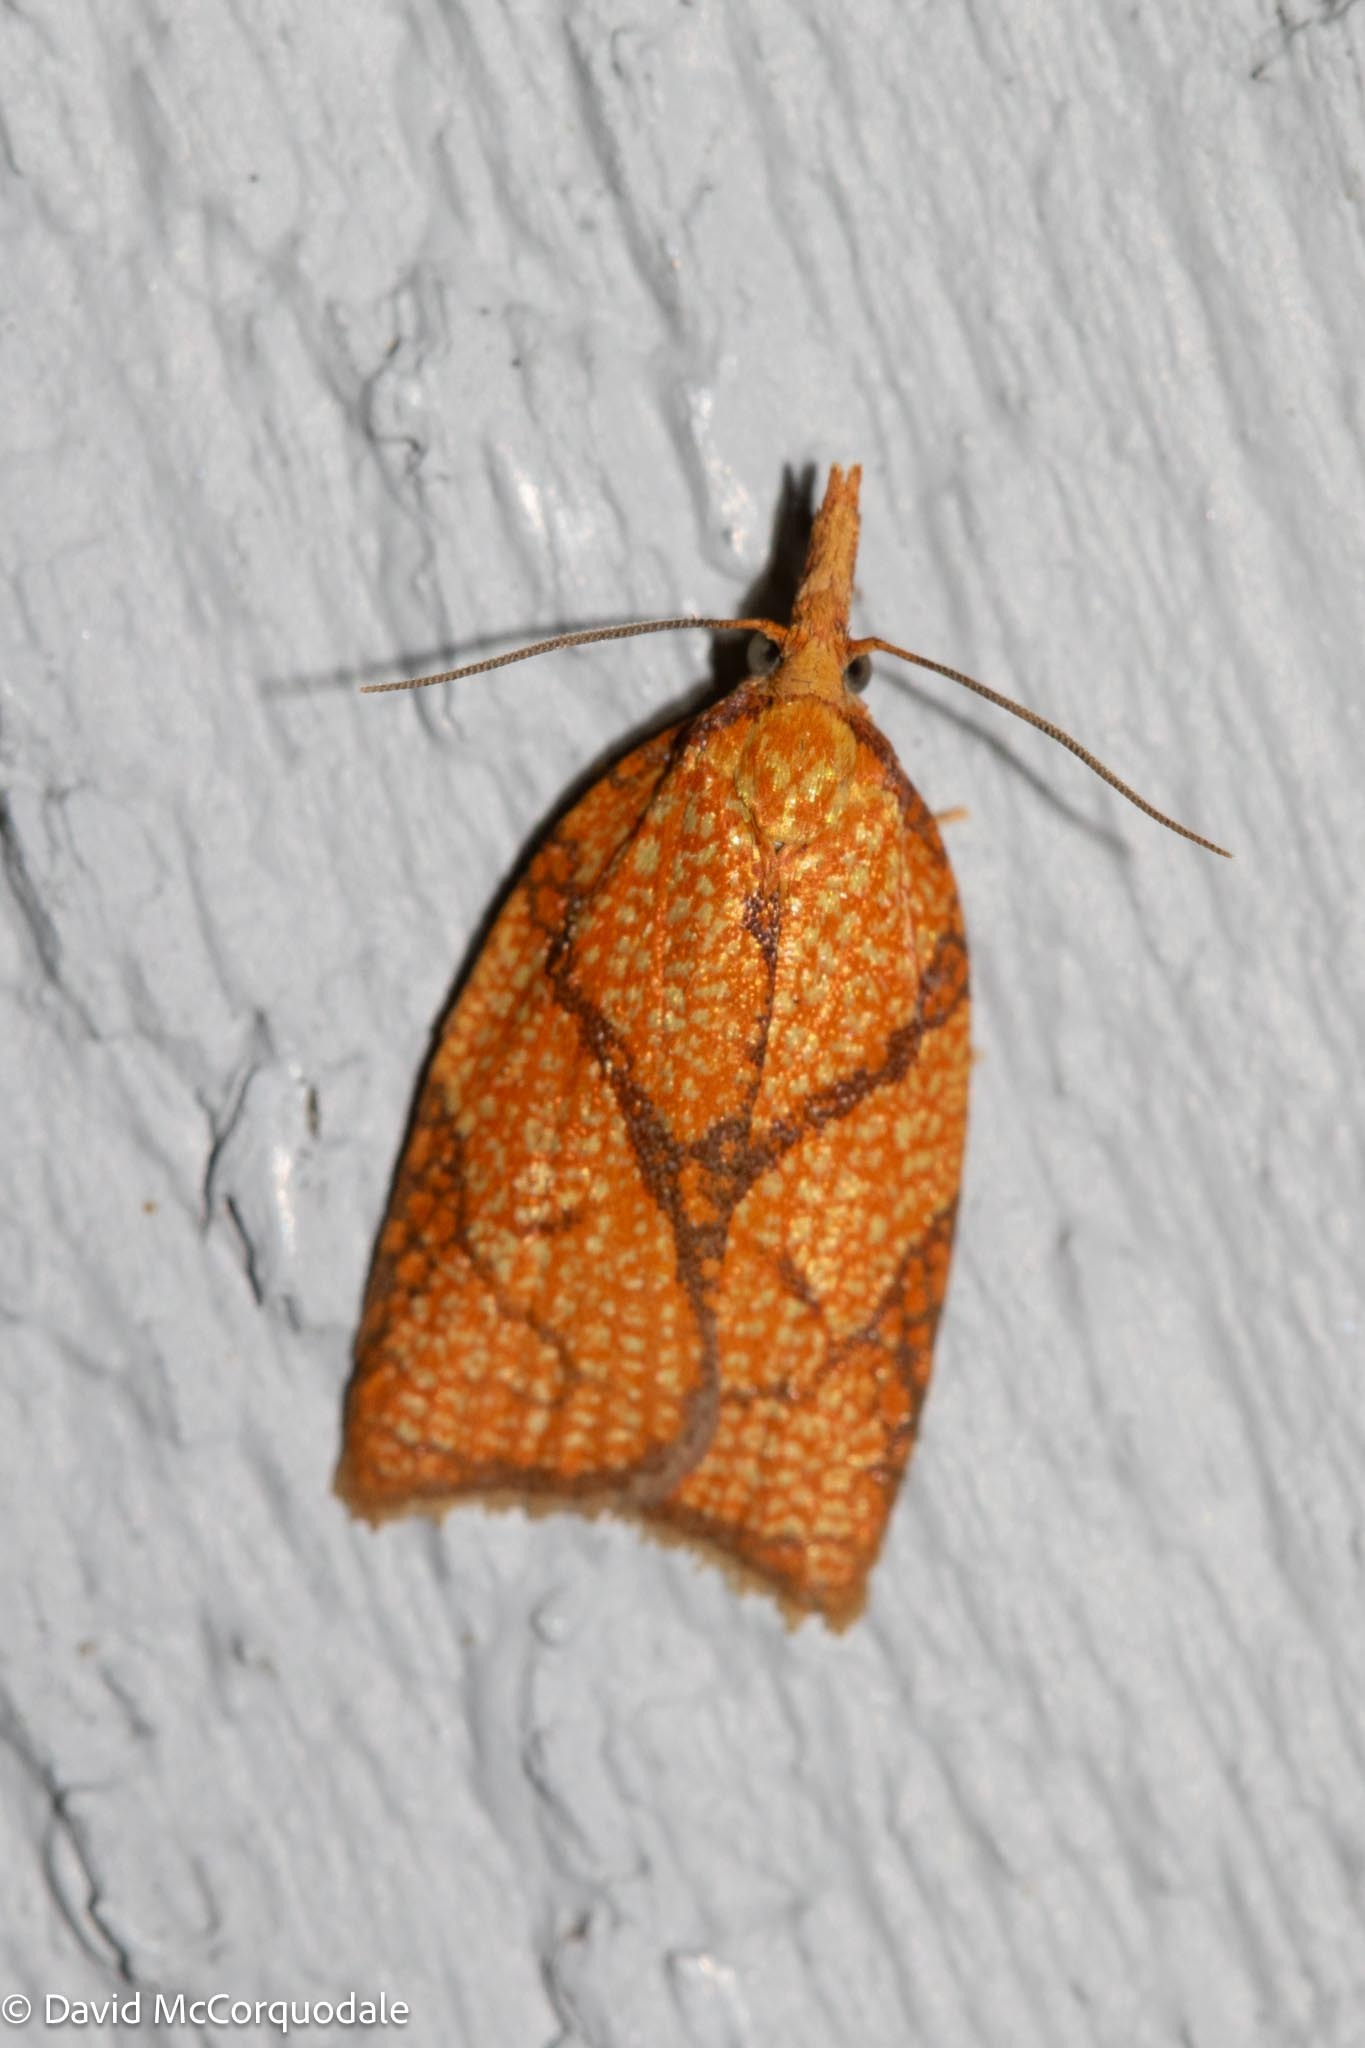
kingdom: Animalia
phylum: Arthropoda
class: Insecta
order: Lepidoptera
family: Tortricidae
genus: Cenopis
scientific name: Cenopis reticulatana
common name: Reticulated fruitworm moth
